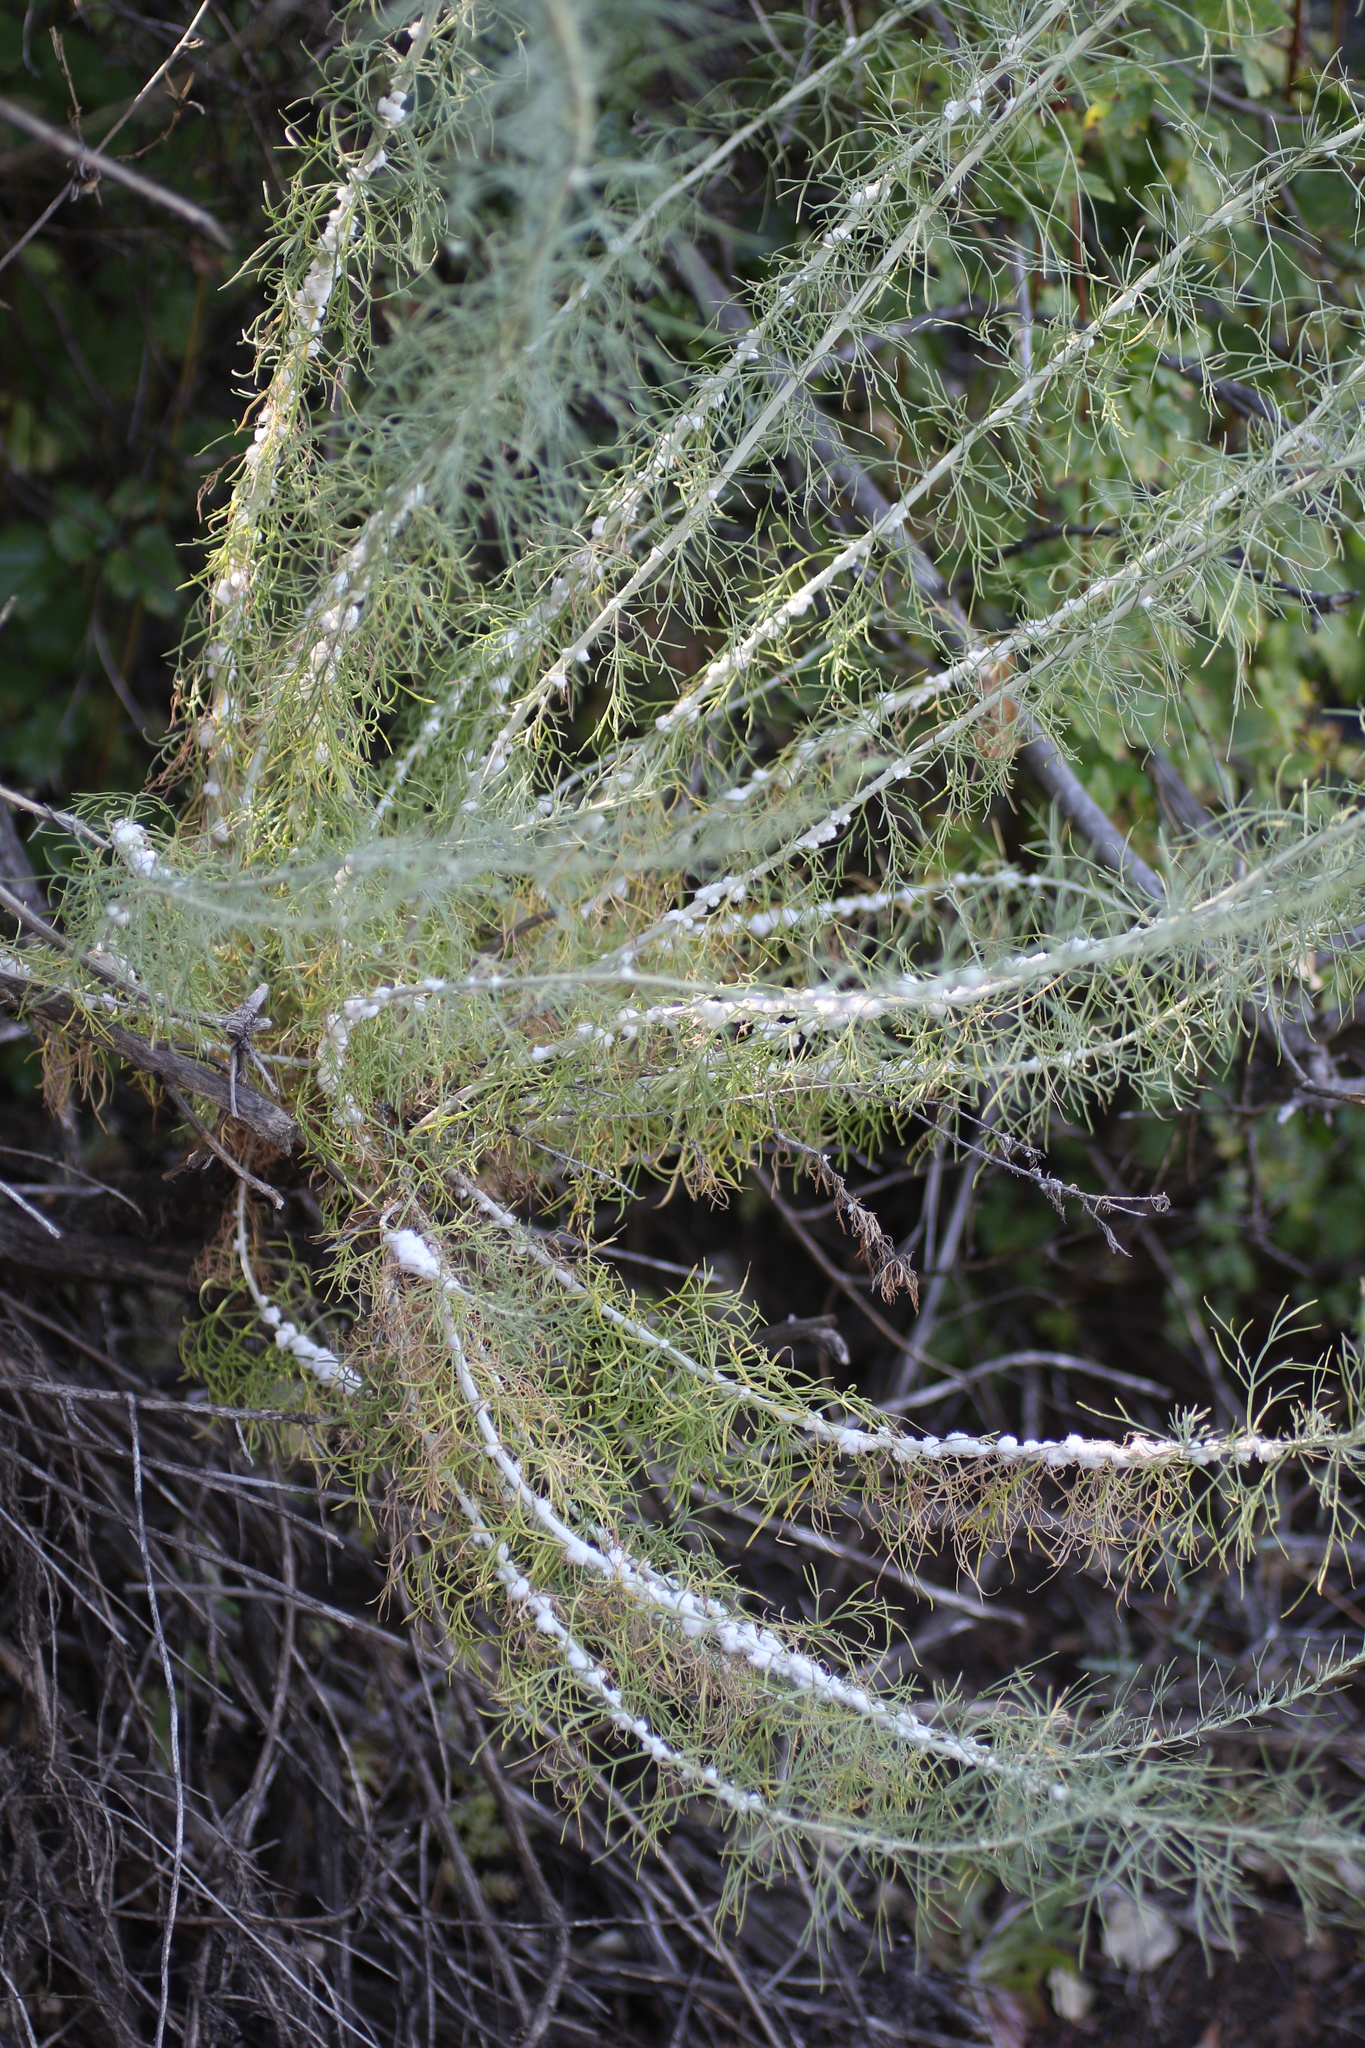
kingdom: Animalia
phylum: Arthropoda
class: Insecta
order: Diptera
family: Cecidomyiidae
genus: Rhopalomyia
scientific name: Rhopalomyia floccosa
